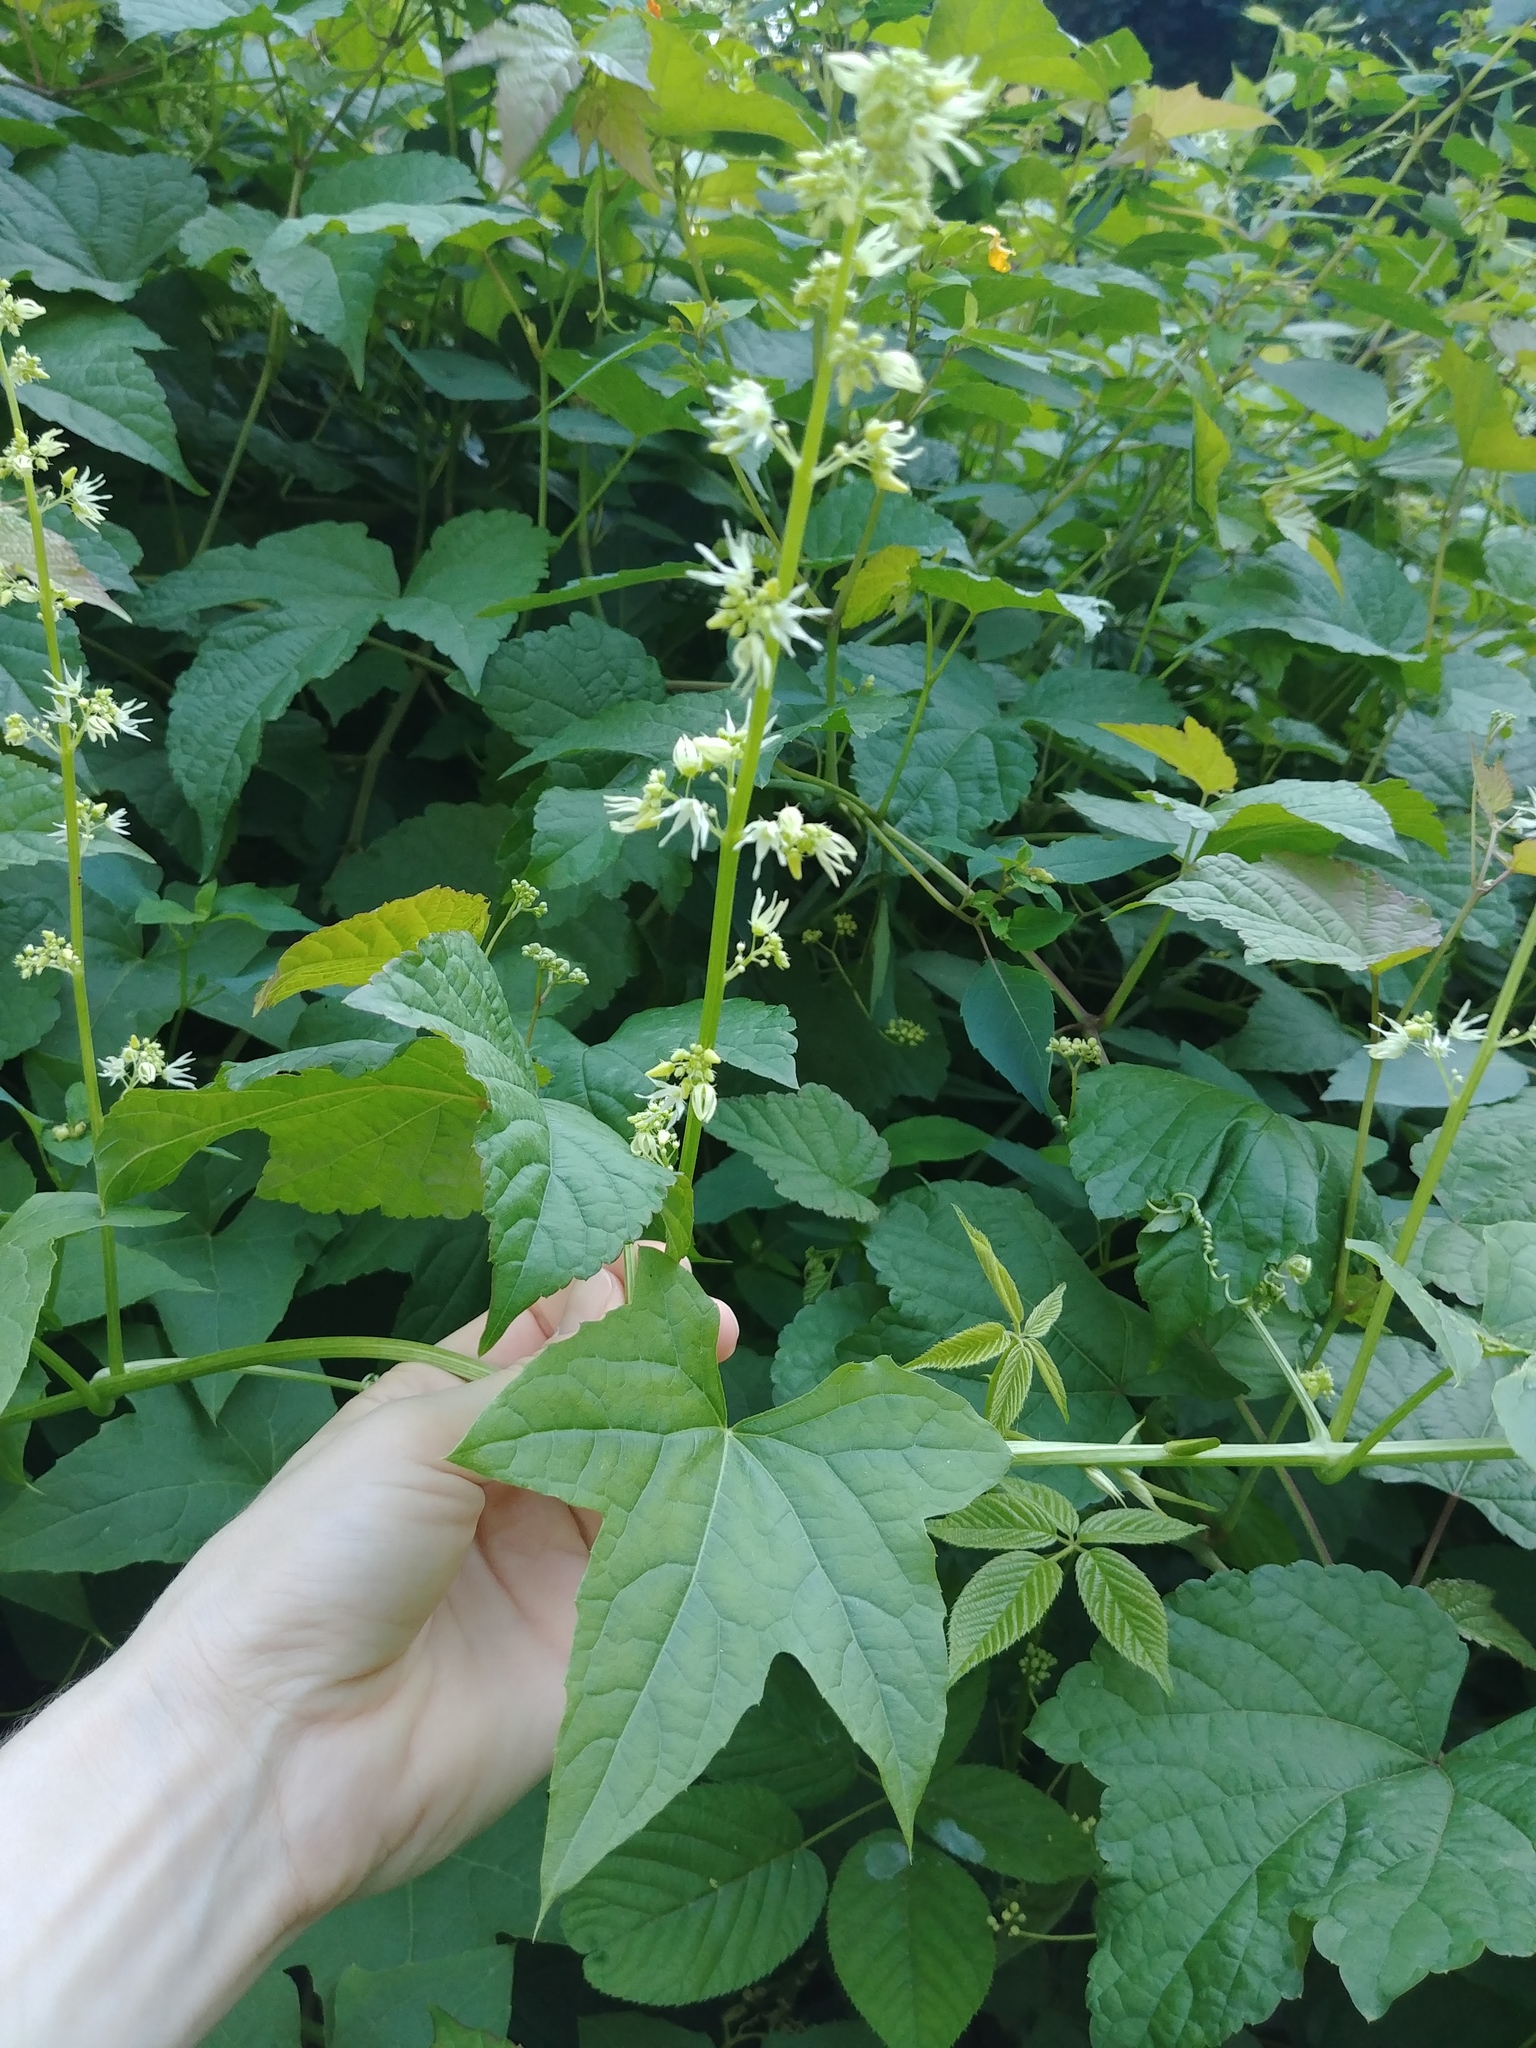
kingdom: Plantae
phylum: Tracheophyta
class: Magnoliopsida
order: Cucurbitales
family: Cucurbitaceae
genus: Echinocystis
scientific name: Echinocystis lobata
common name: Wild cucumber
